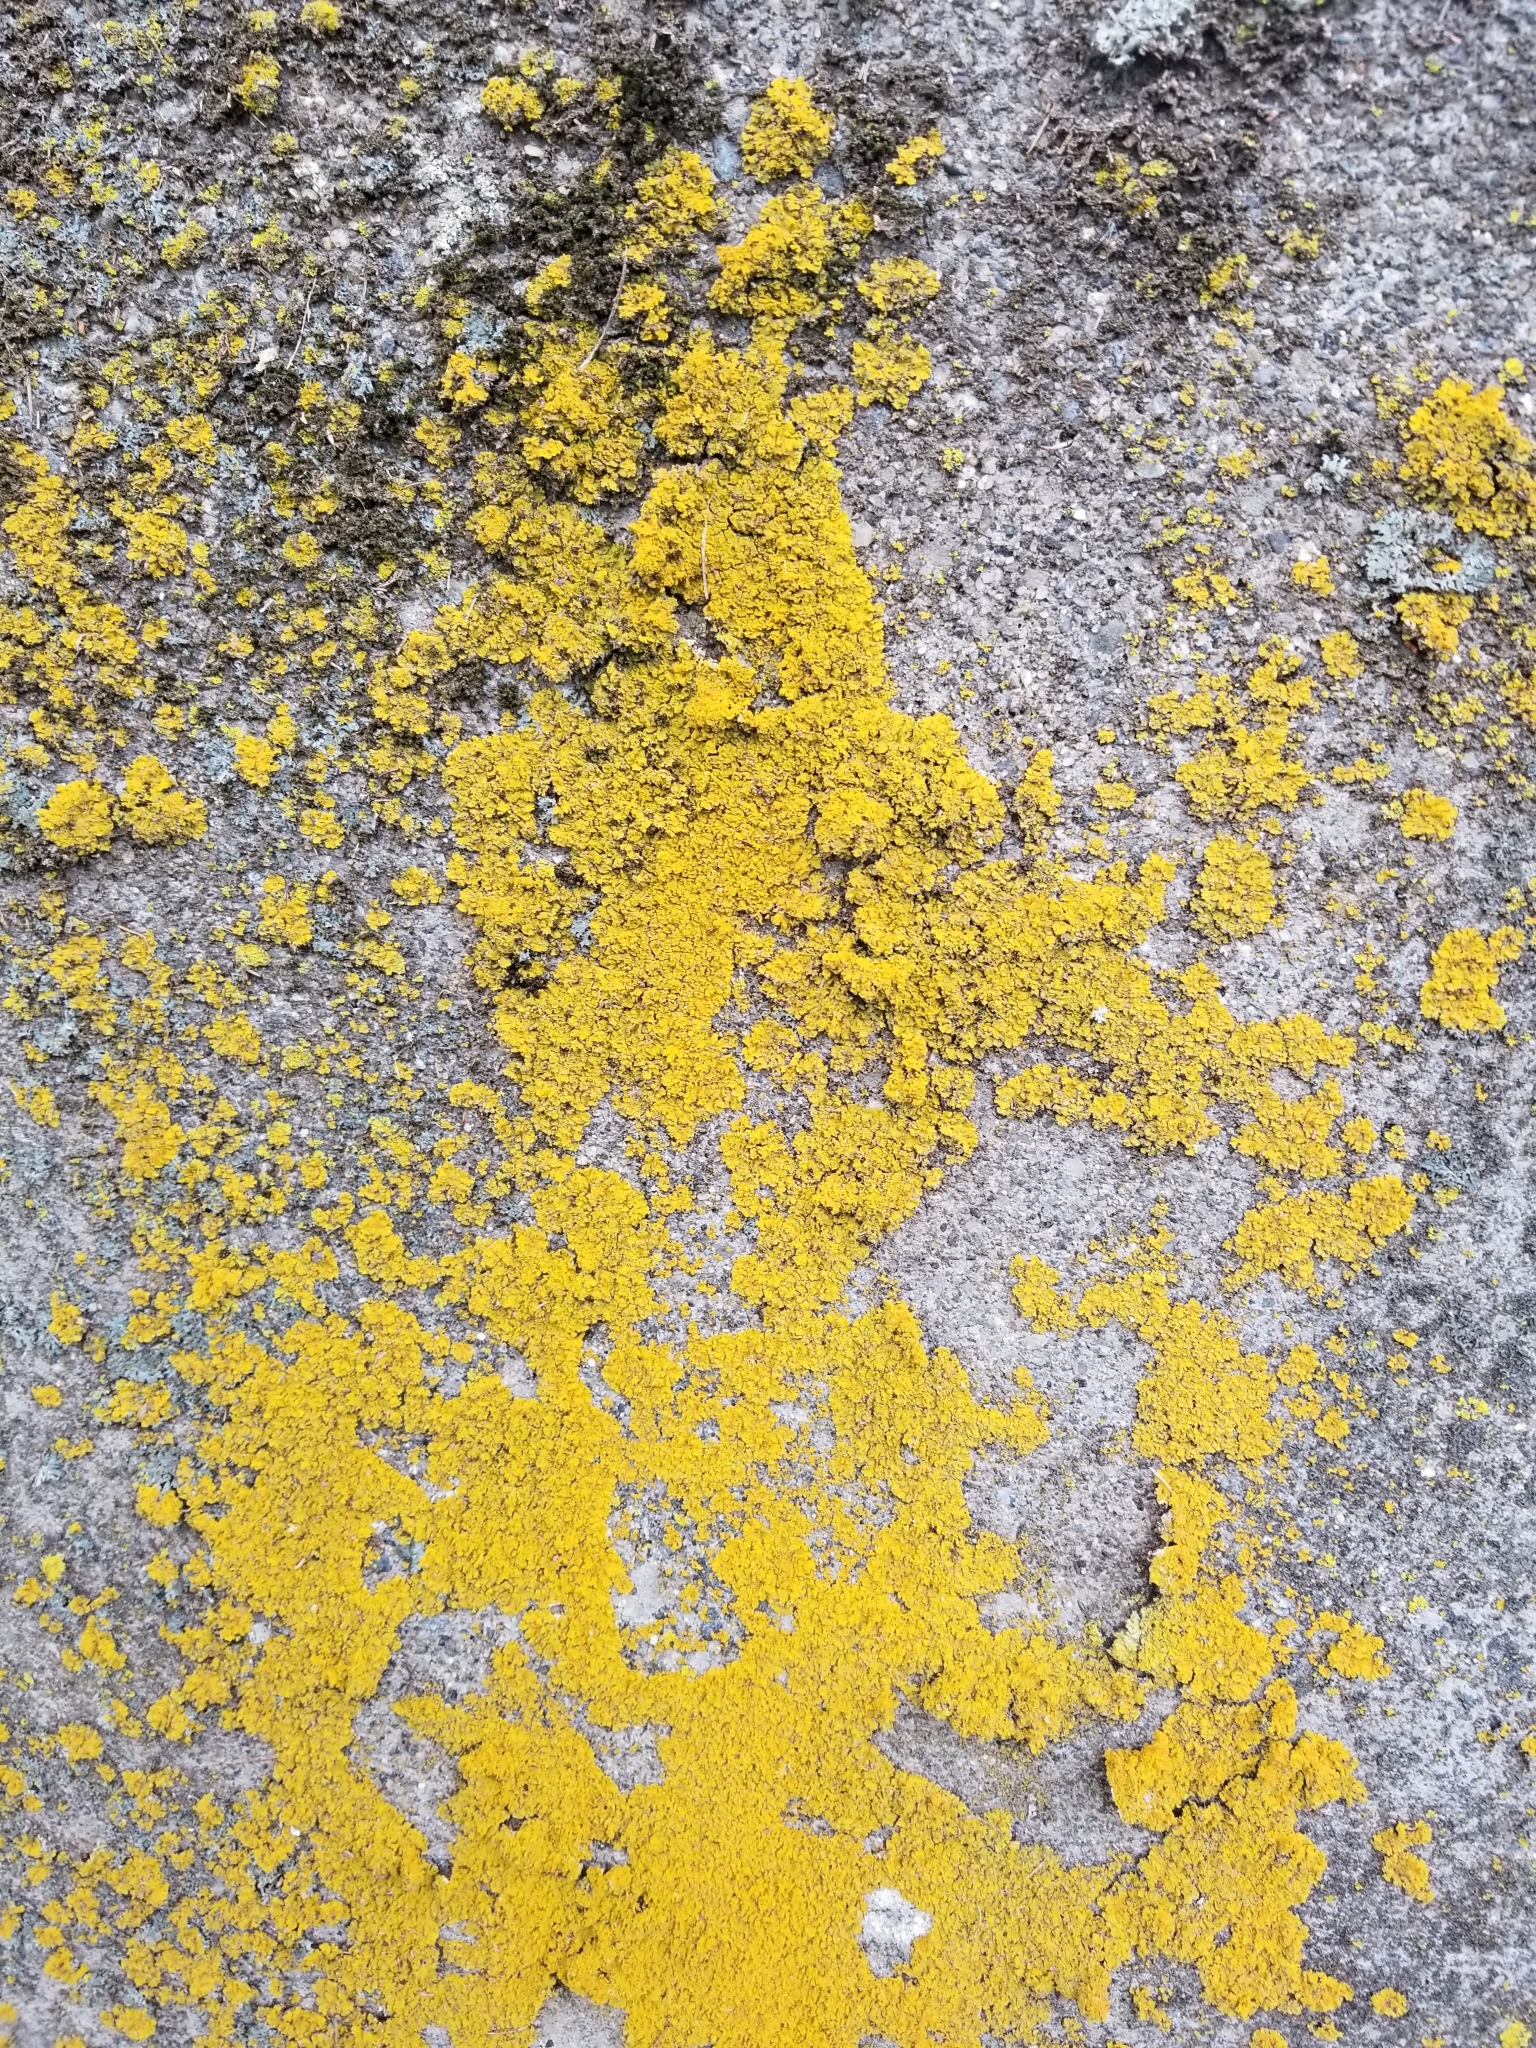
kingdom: Fungi
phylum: Ascomycota
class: Candelariomycetes
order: Candelariales
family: Candelariaceae
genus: Candelaria
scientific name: Candelaria concolor
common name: Candleflame lichen
